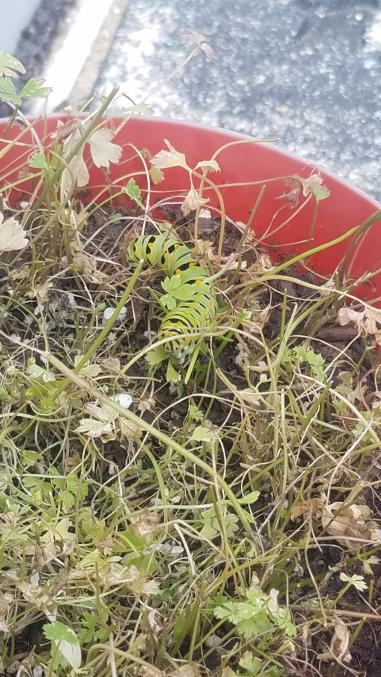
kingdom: Animalia
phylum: Arthropoda
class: Insecta
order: Lepidoptera
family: Papilionidae
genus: Papilio
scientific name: Papilio polyxenes
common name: Black swallowtail
